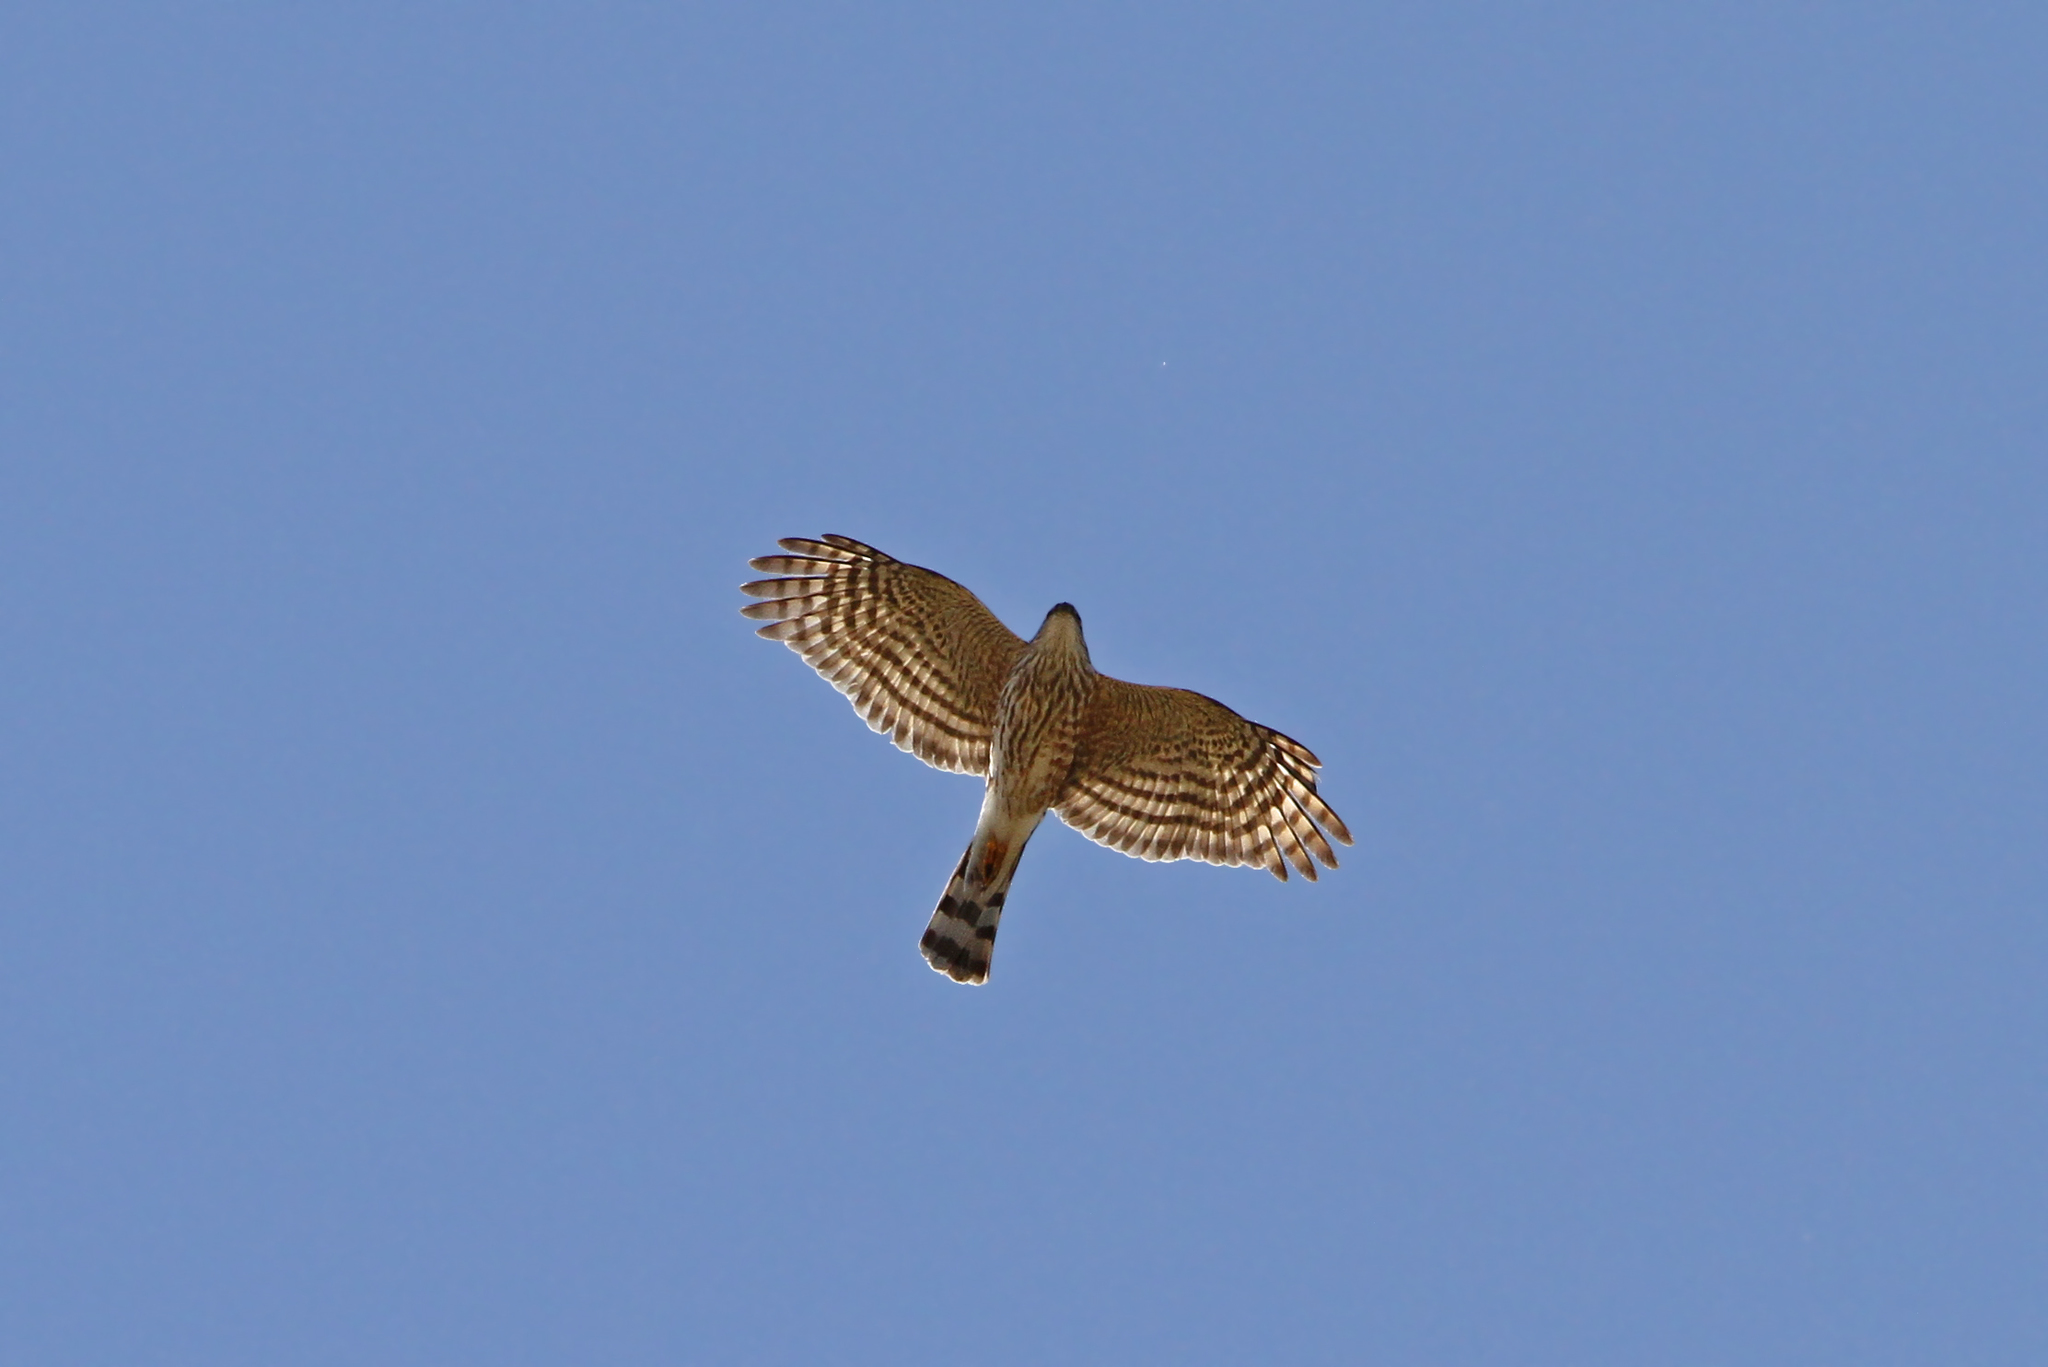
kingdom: Animalia
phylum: Chordata
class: Aves
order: Accipitriformes
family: Accipitridae
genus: Accipiter
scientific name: Accipiter striatus
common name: Sharp-shinned hawk
